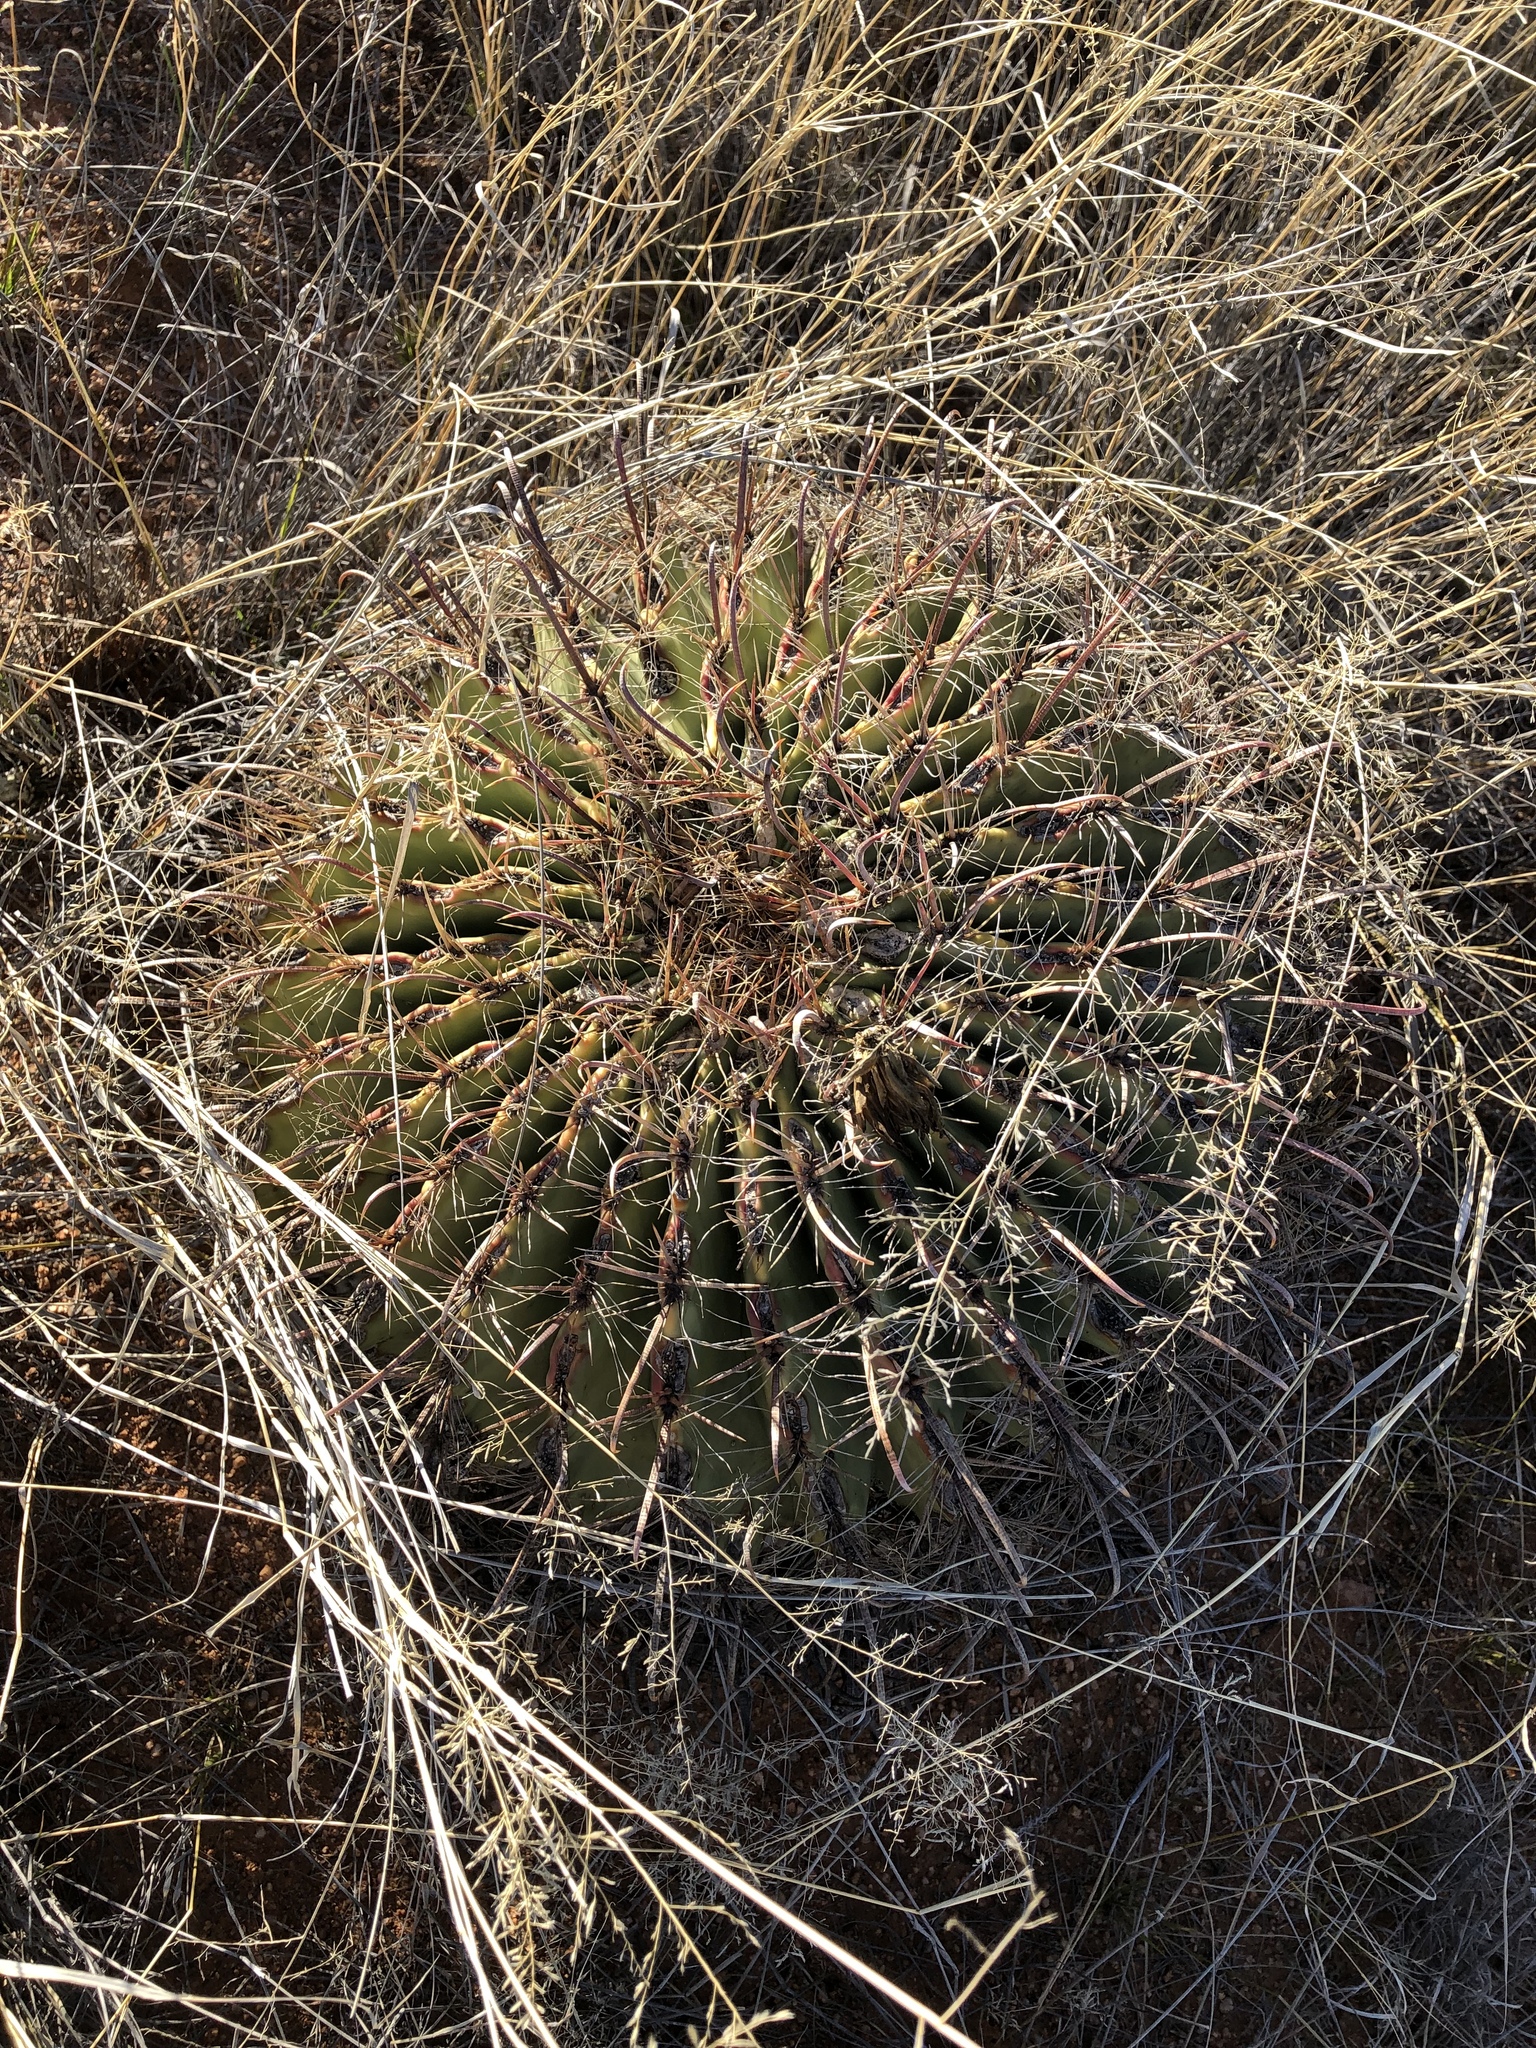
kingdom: Plantae
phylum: Tracheophyta
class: Magnoliopsida
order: Caryophyllales
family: Cactaceae
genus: Ferocactus
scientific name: Ferocactus wislizeni
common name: Candy barrel cactus
